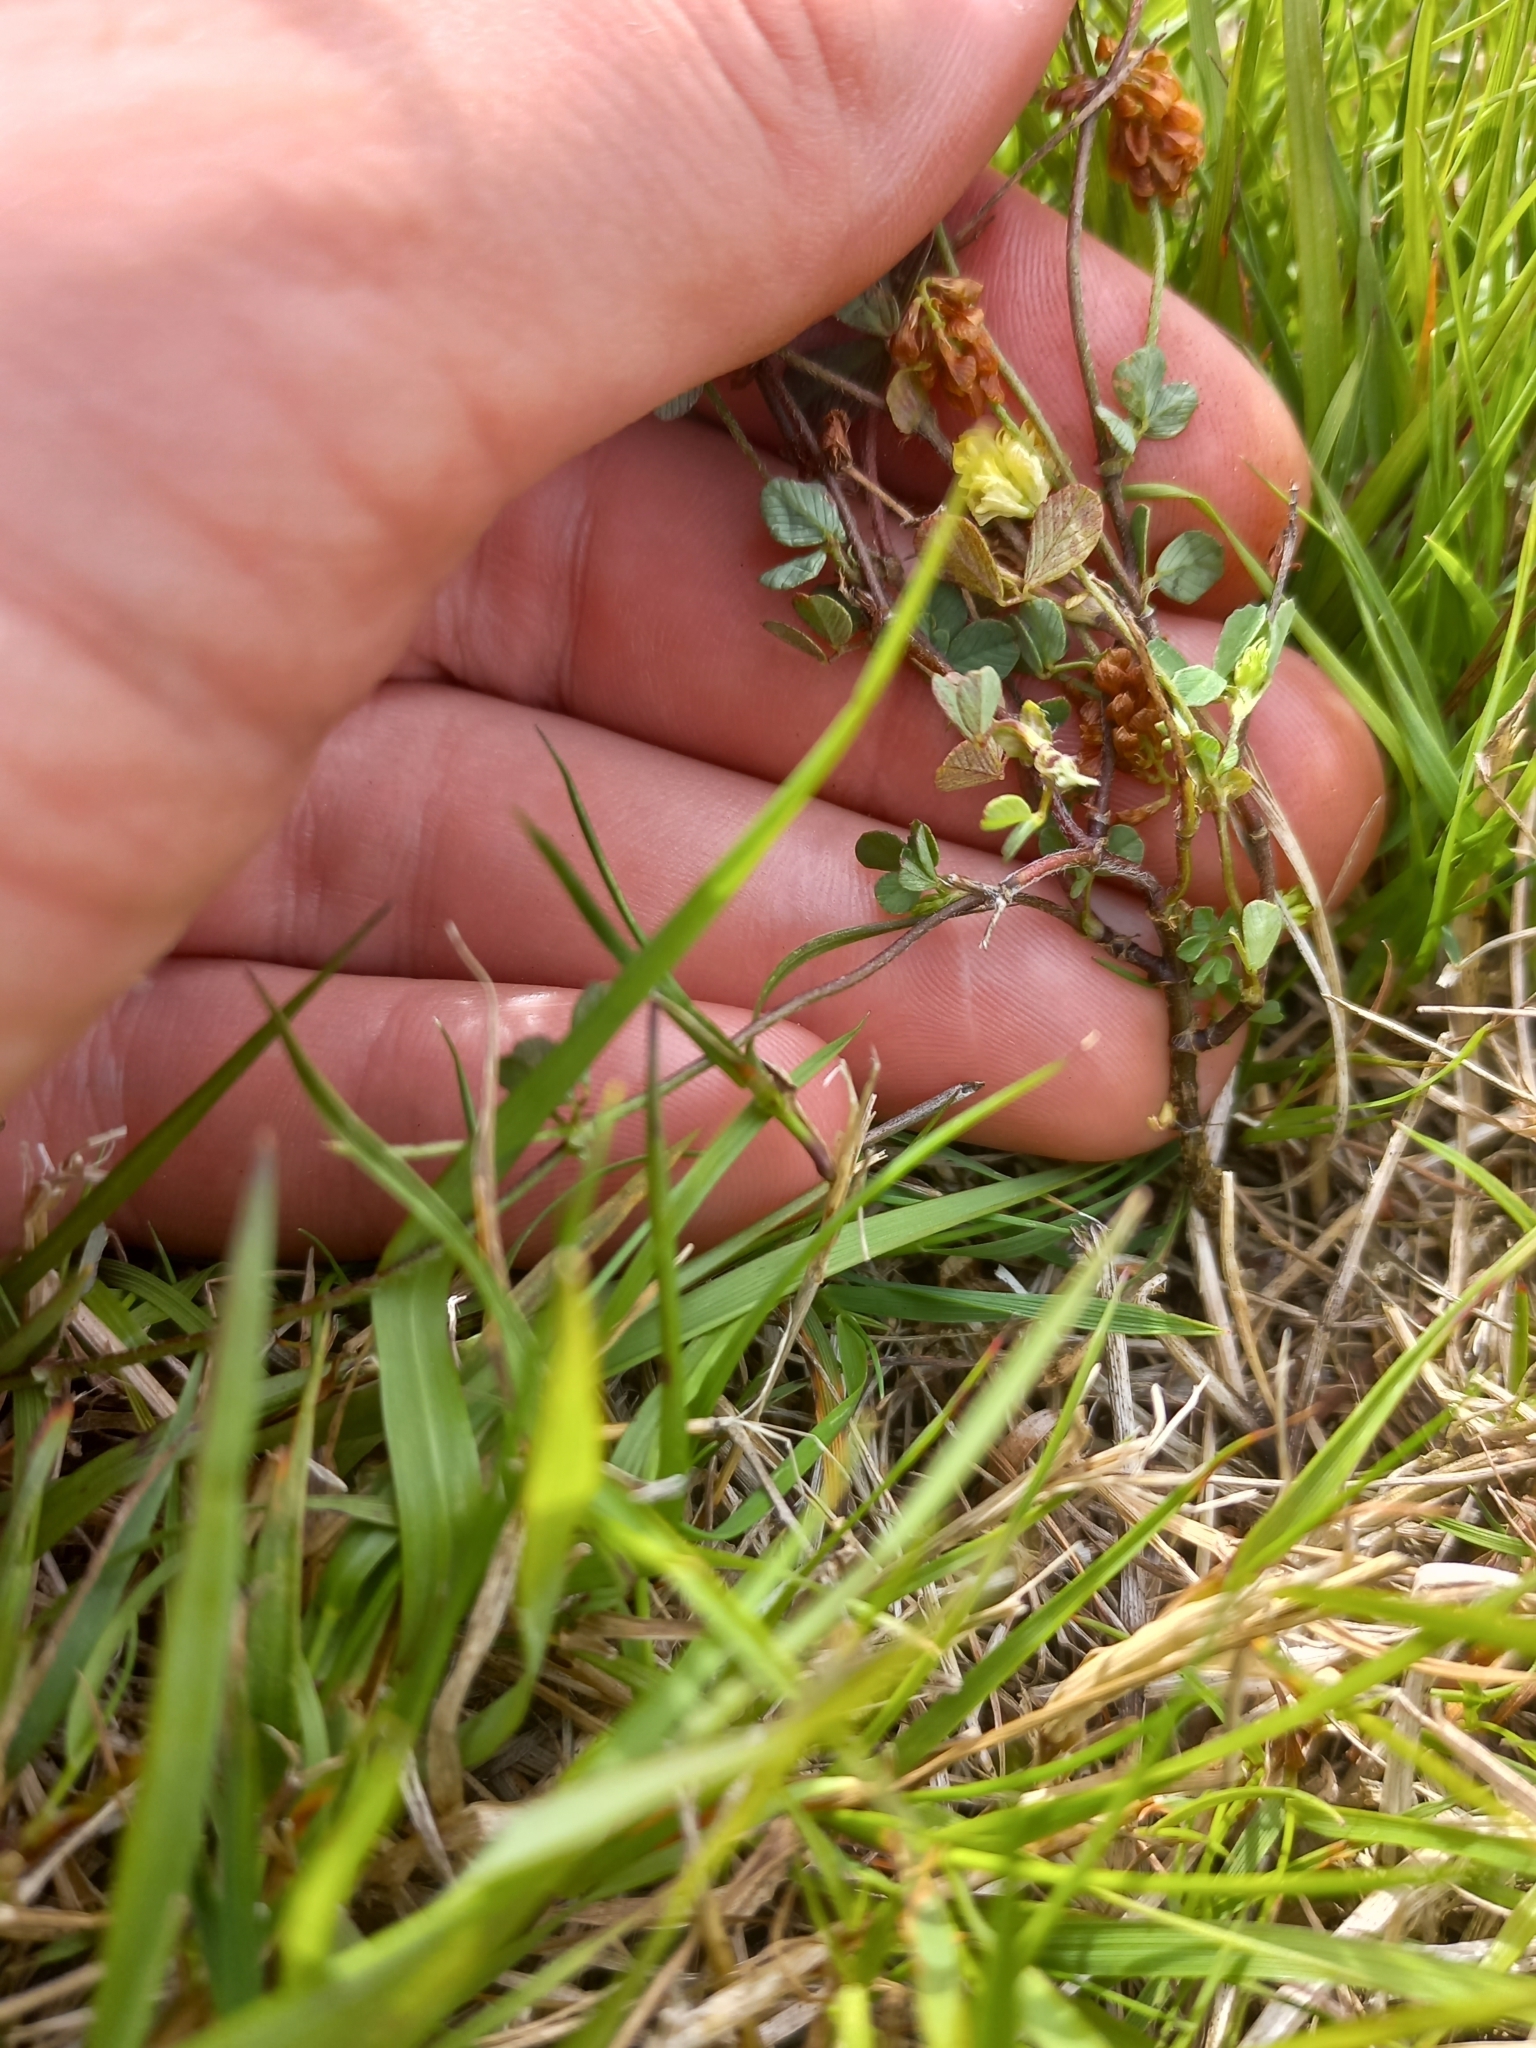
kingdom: Plantae
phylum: Tracheophyta
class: Magnoliopsida
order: Fabales
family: Fabaceae
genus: Trifolium
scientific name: Trifolium campestre
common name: Field clover
